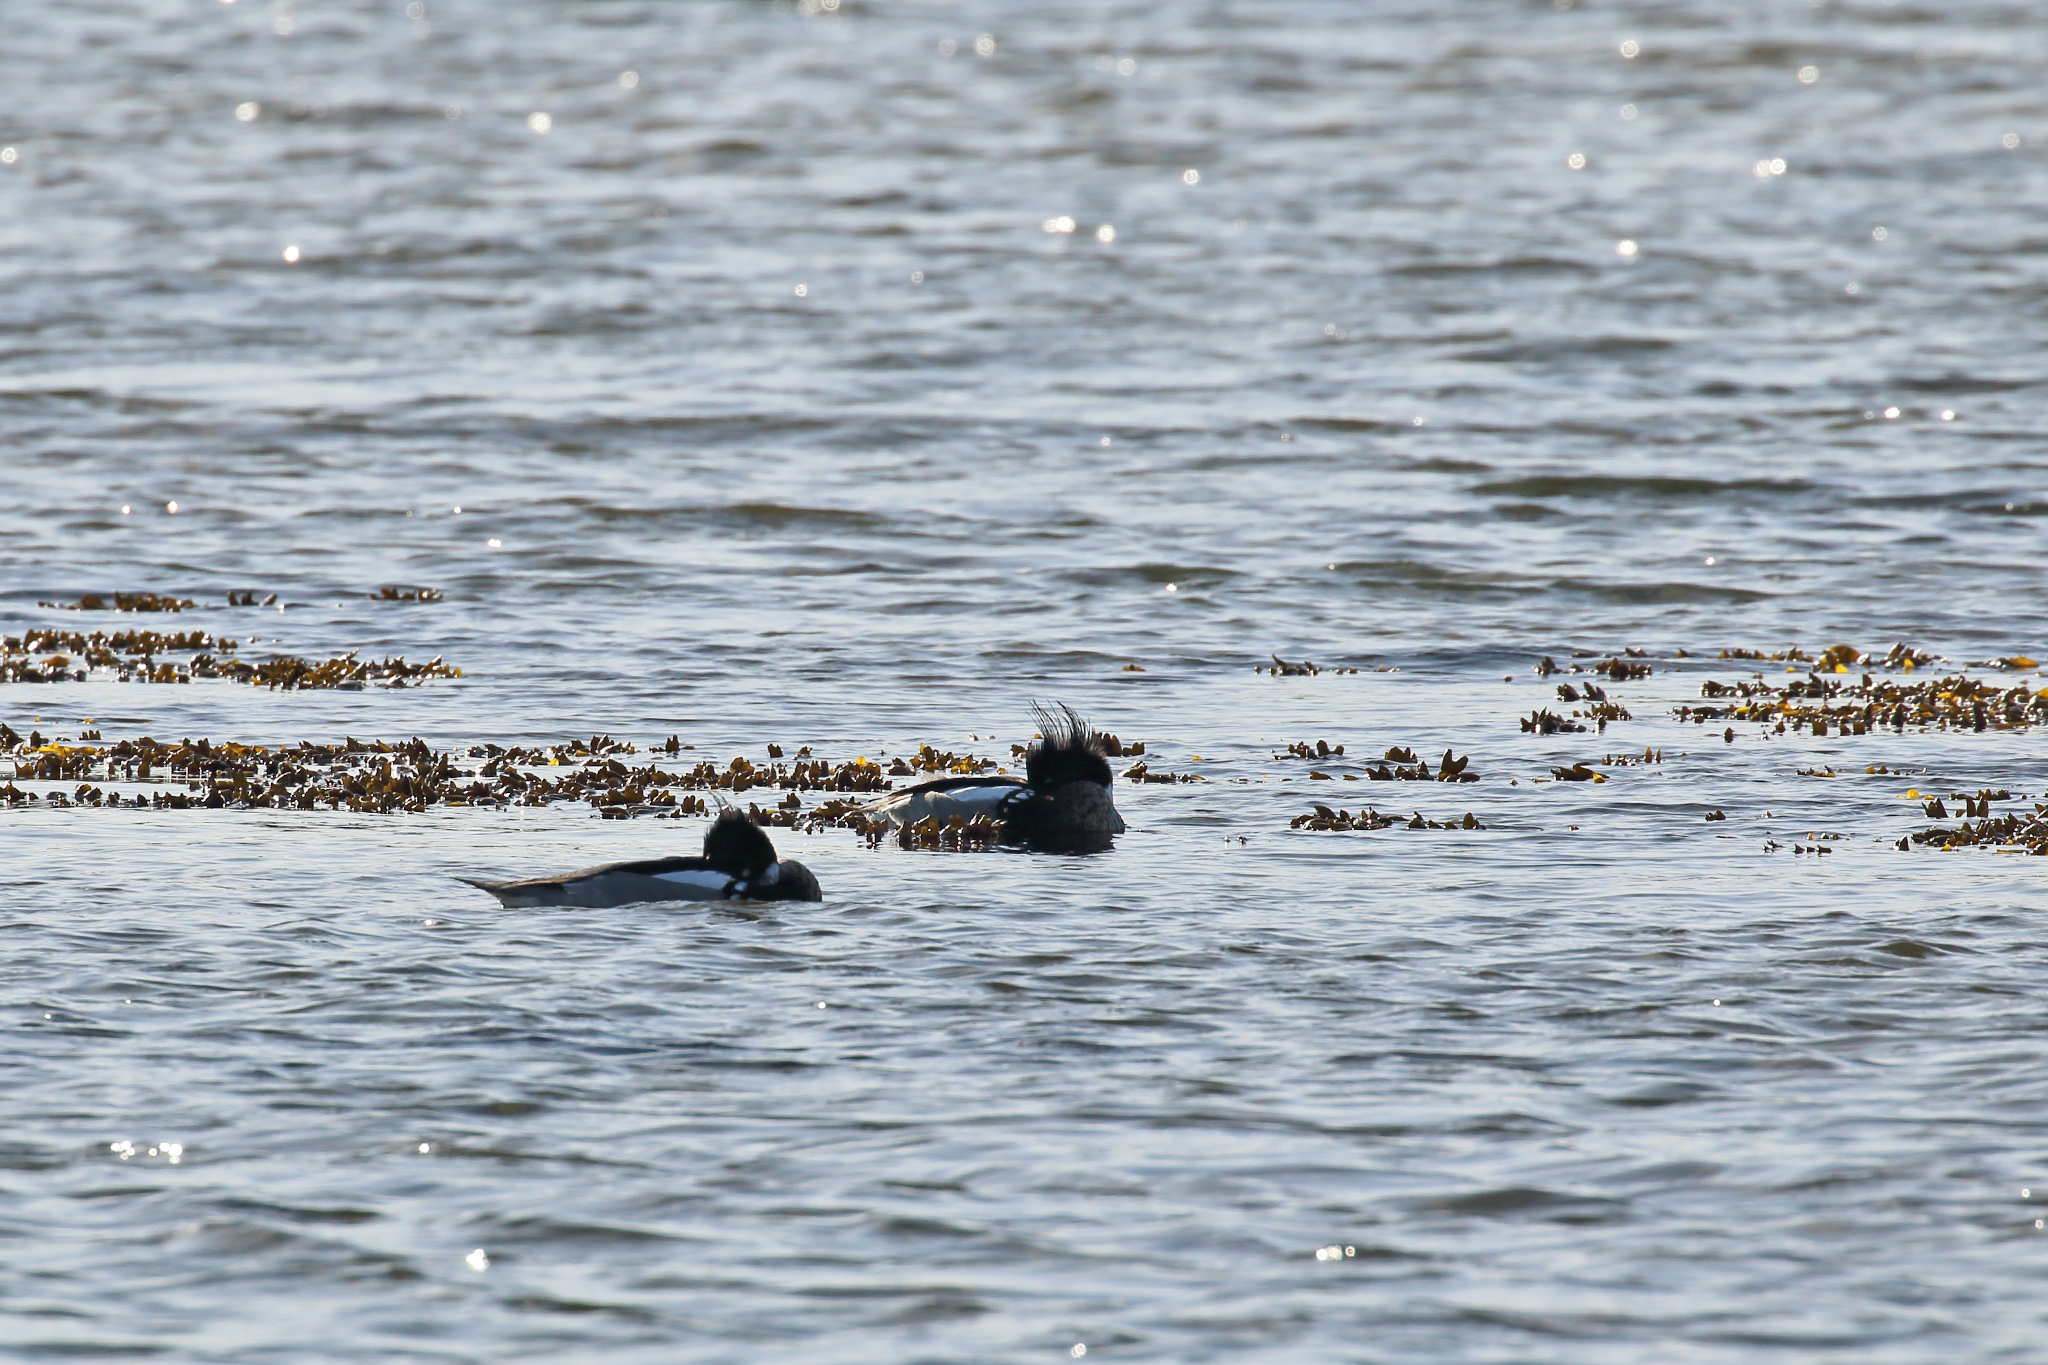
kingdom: Animalia
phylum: Chordata
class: Aves
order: Anseriformes
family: Anatidae
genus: Mergus
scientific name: Mergus serrator
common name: Red-breasted merganser
